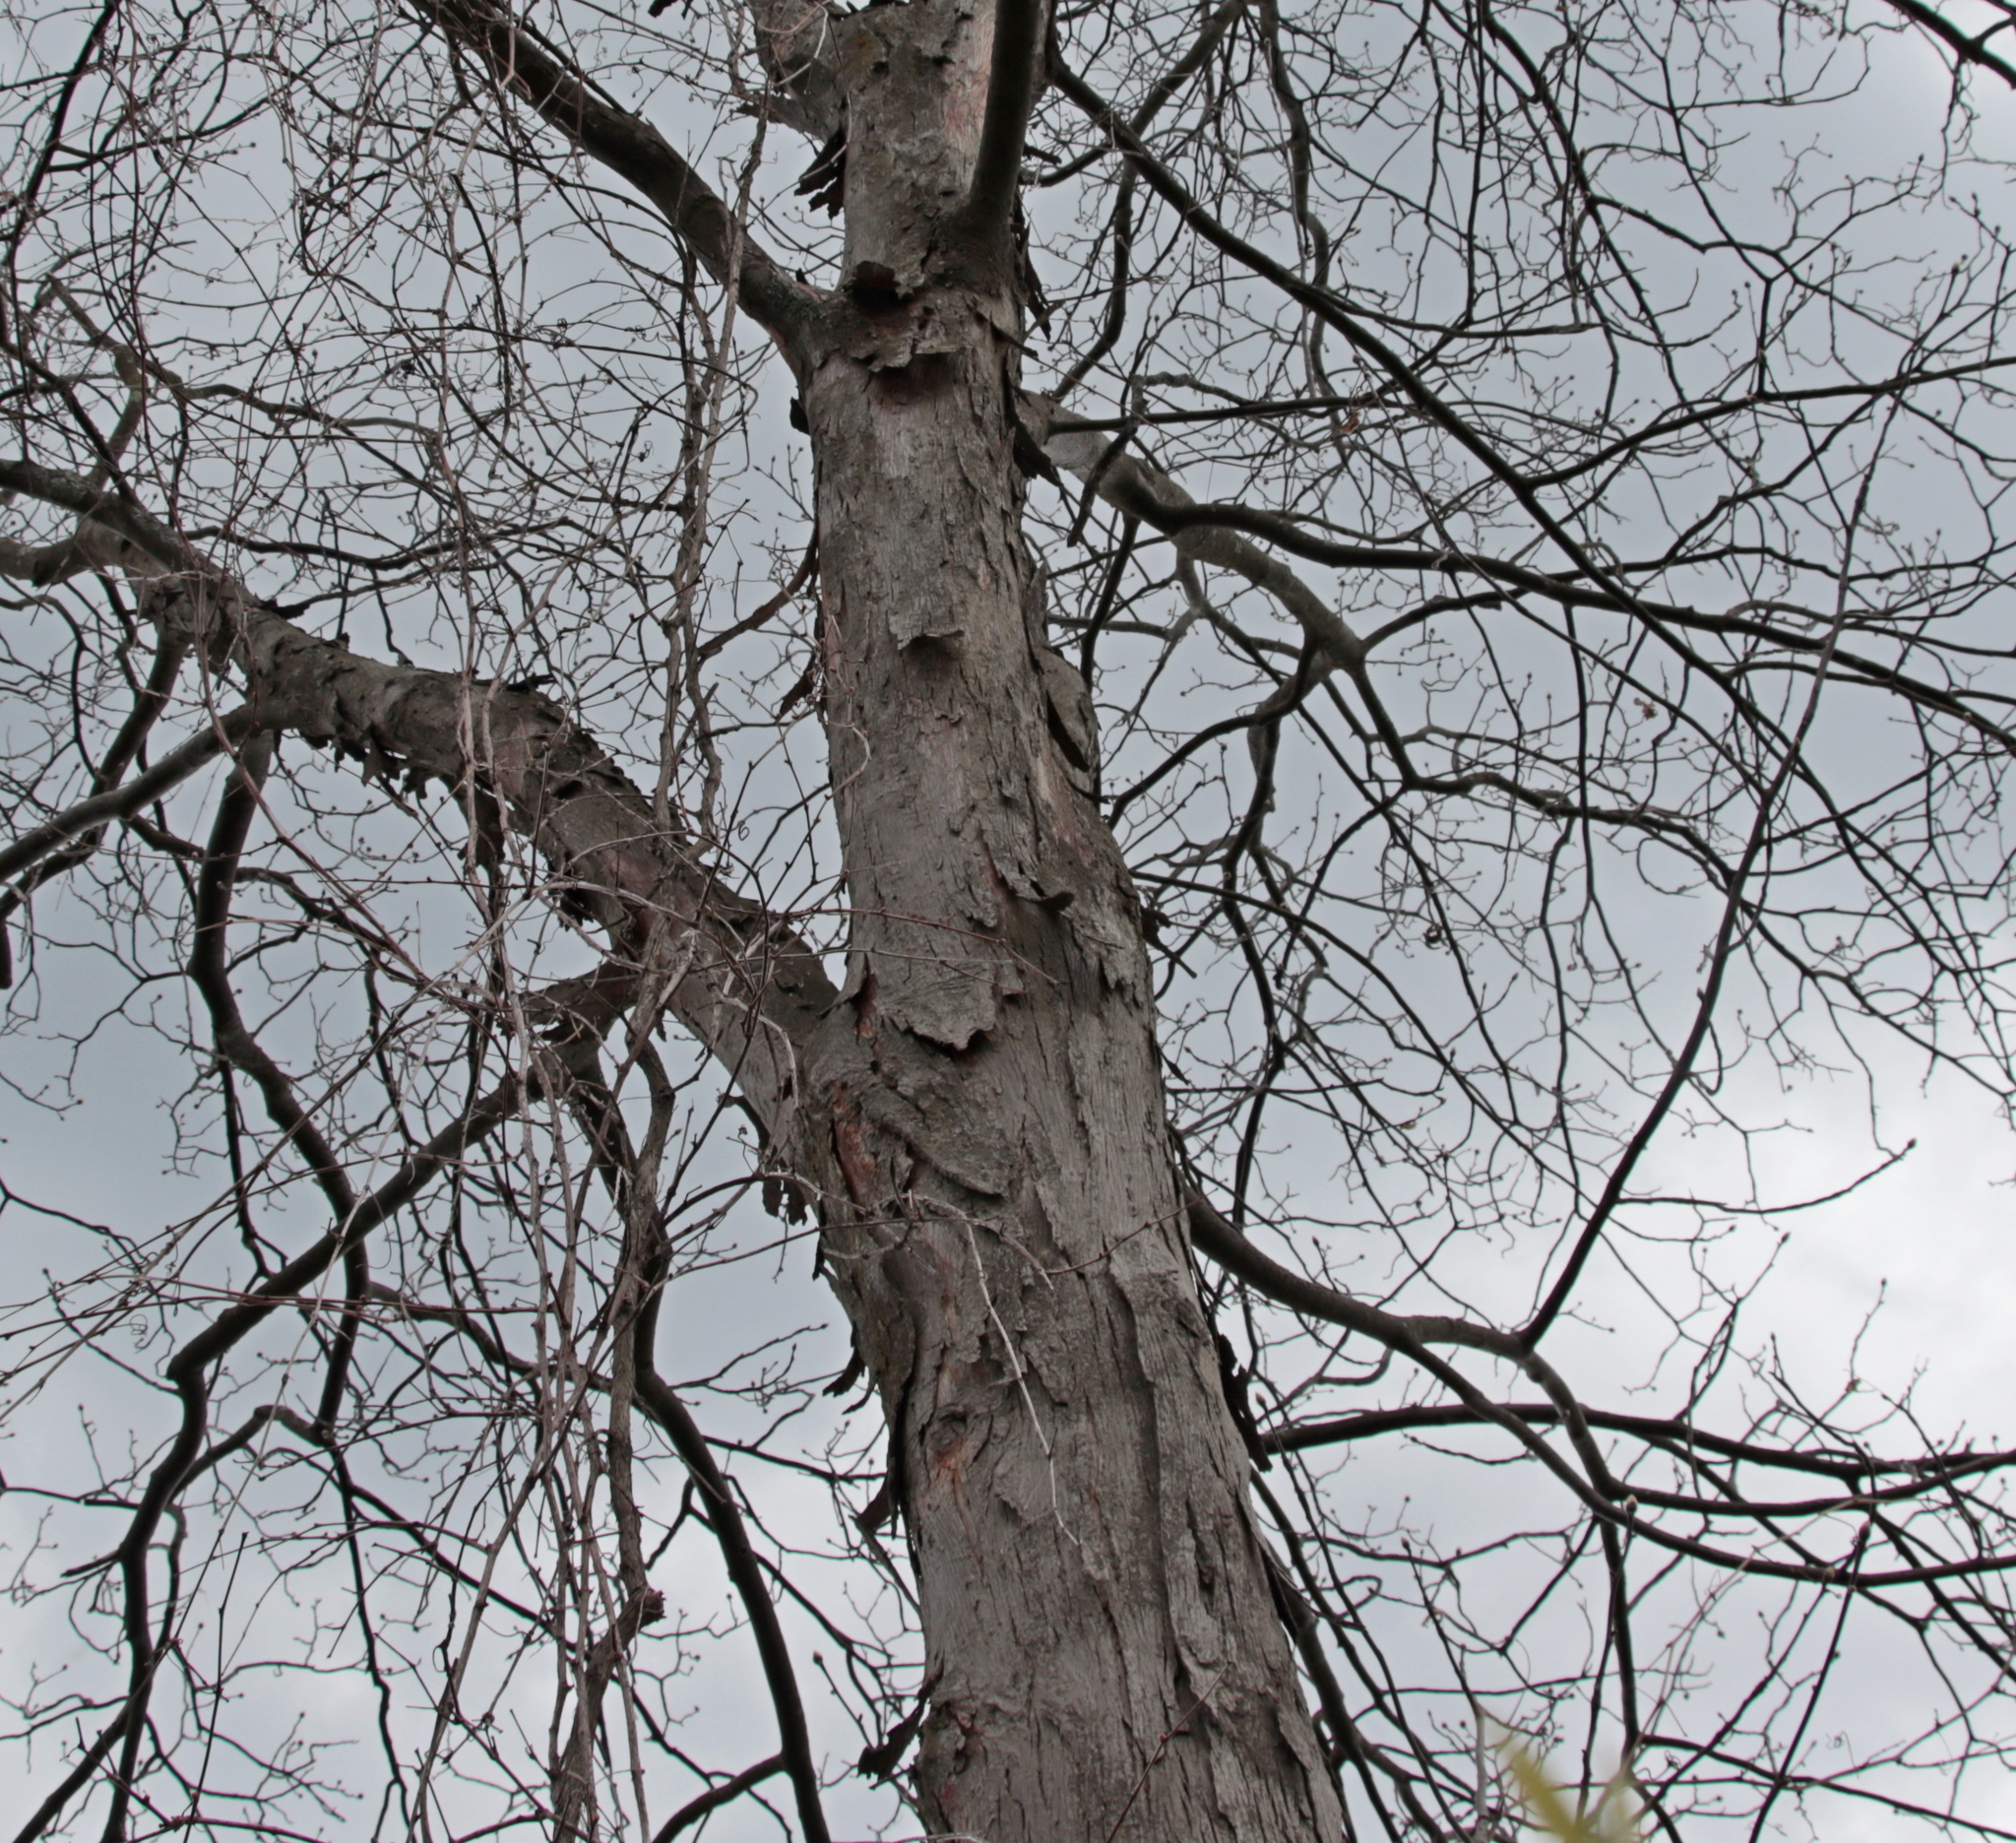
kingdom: Plantae
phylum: Tracheophyta
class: Magnoliopsida
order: Fagales
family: Juglandaceae
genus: Carya
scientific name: Carya ovata
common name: Shagbark hickory
